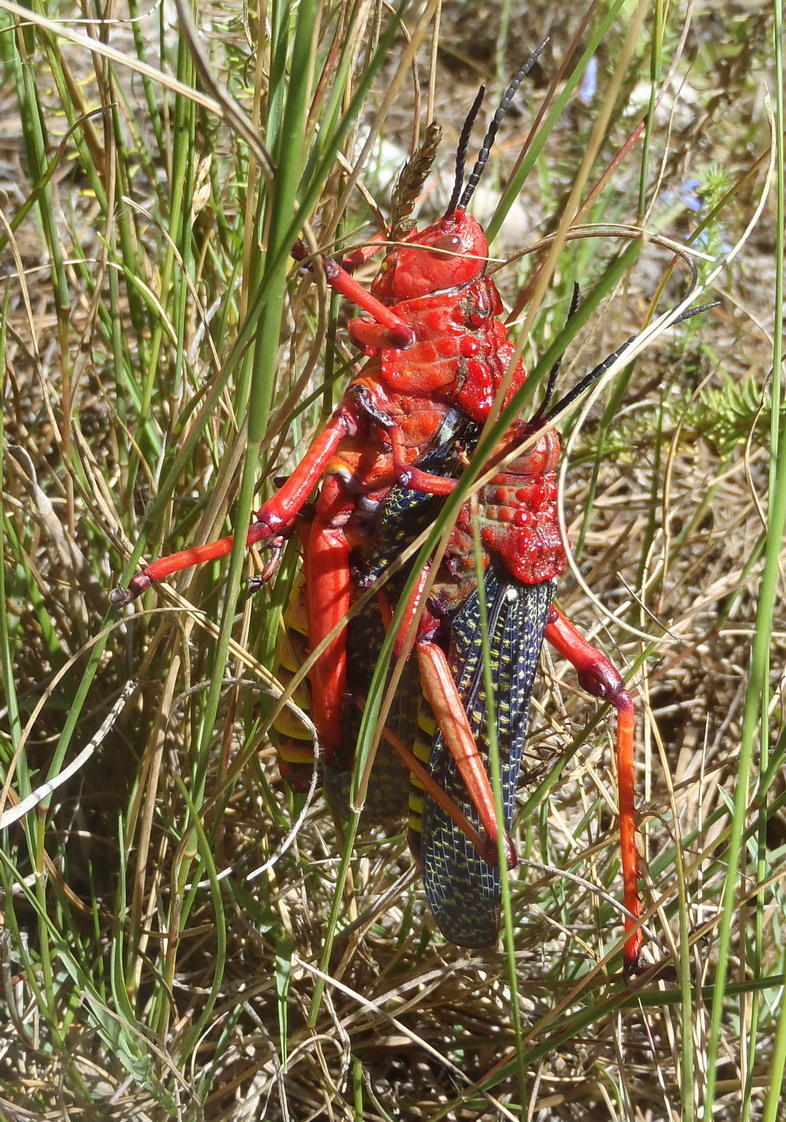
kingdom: Animalia
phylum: Arthropoda
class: Insecta
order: Orthoptera
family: Pyrgomorphidae
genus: Phymateus
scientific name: Phymateus morbillosus
